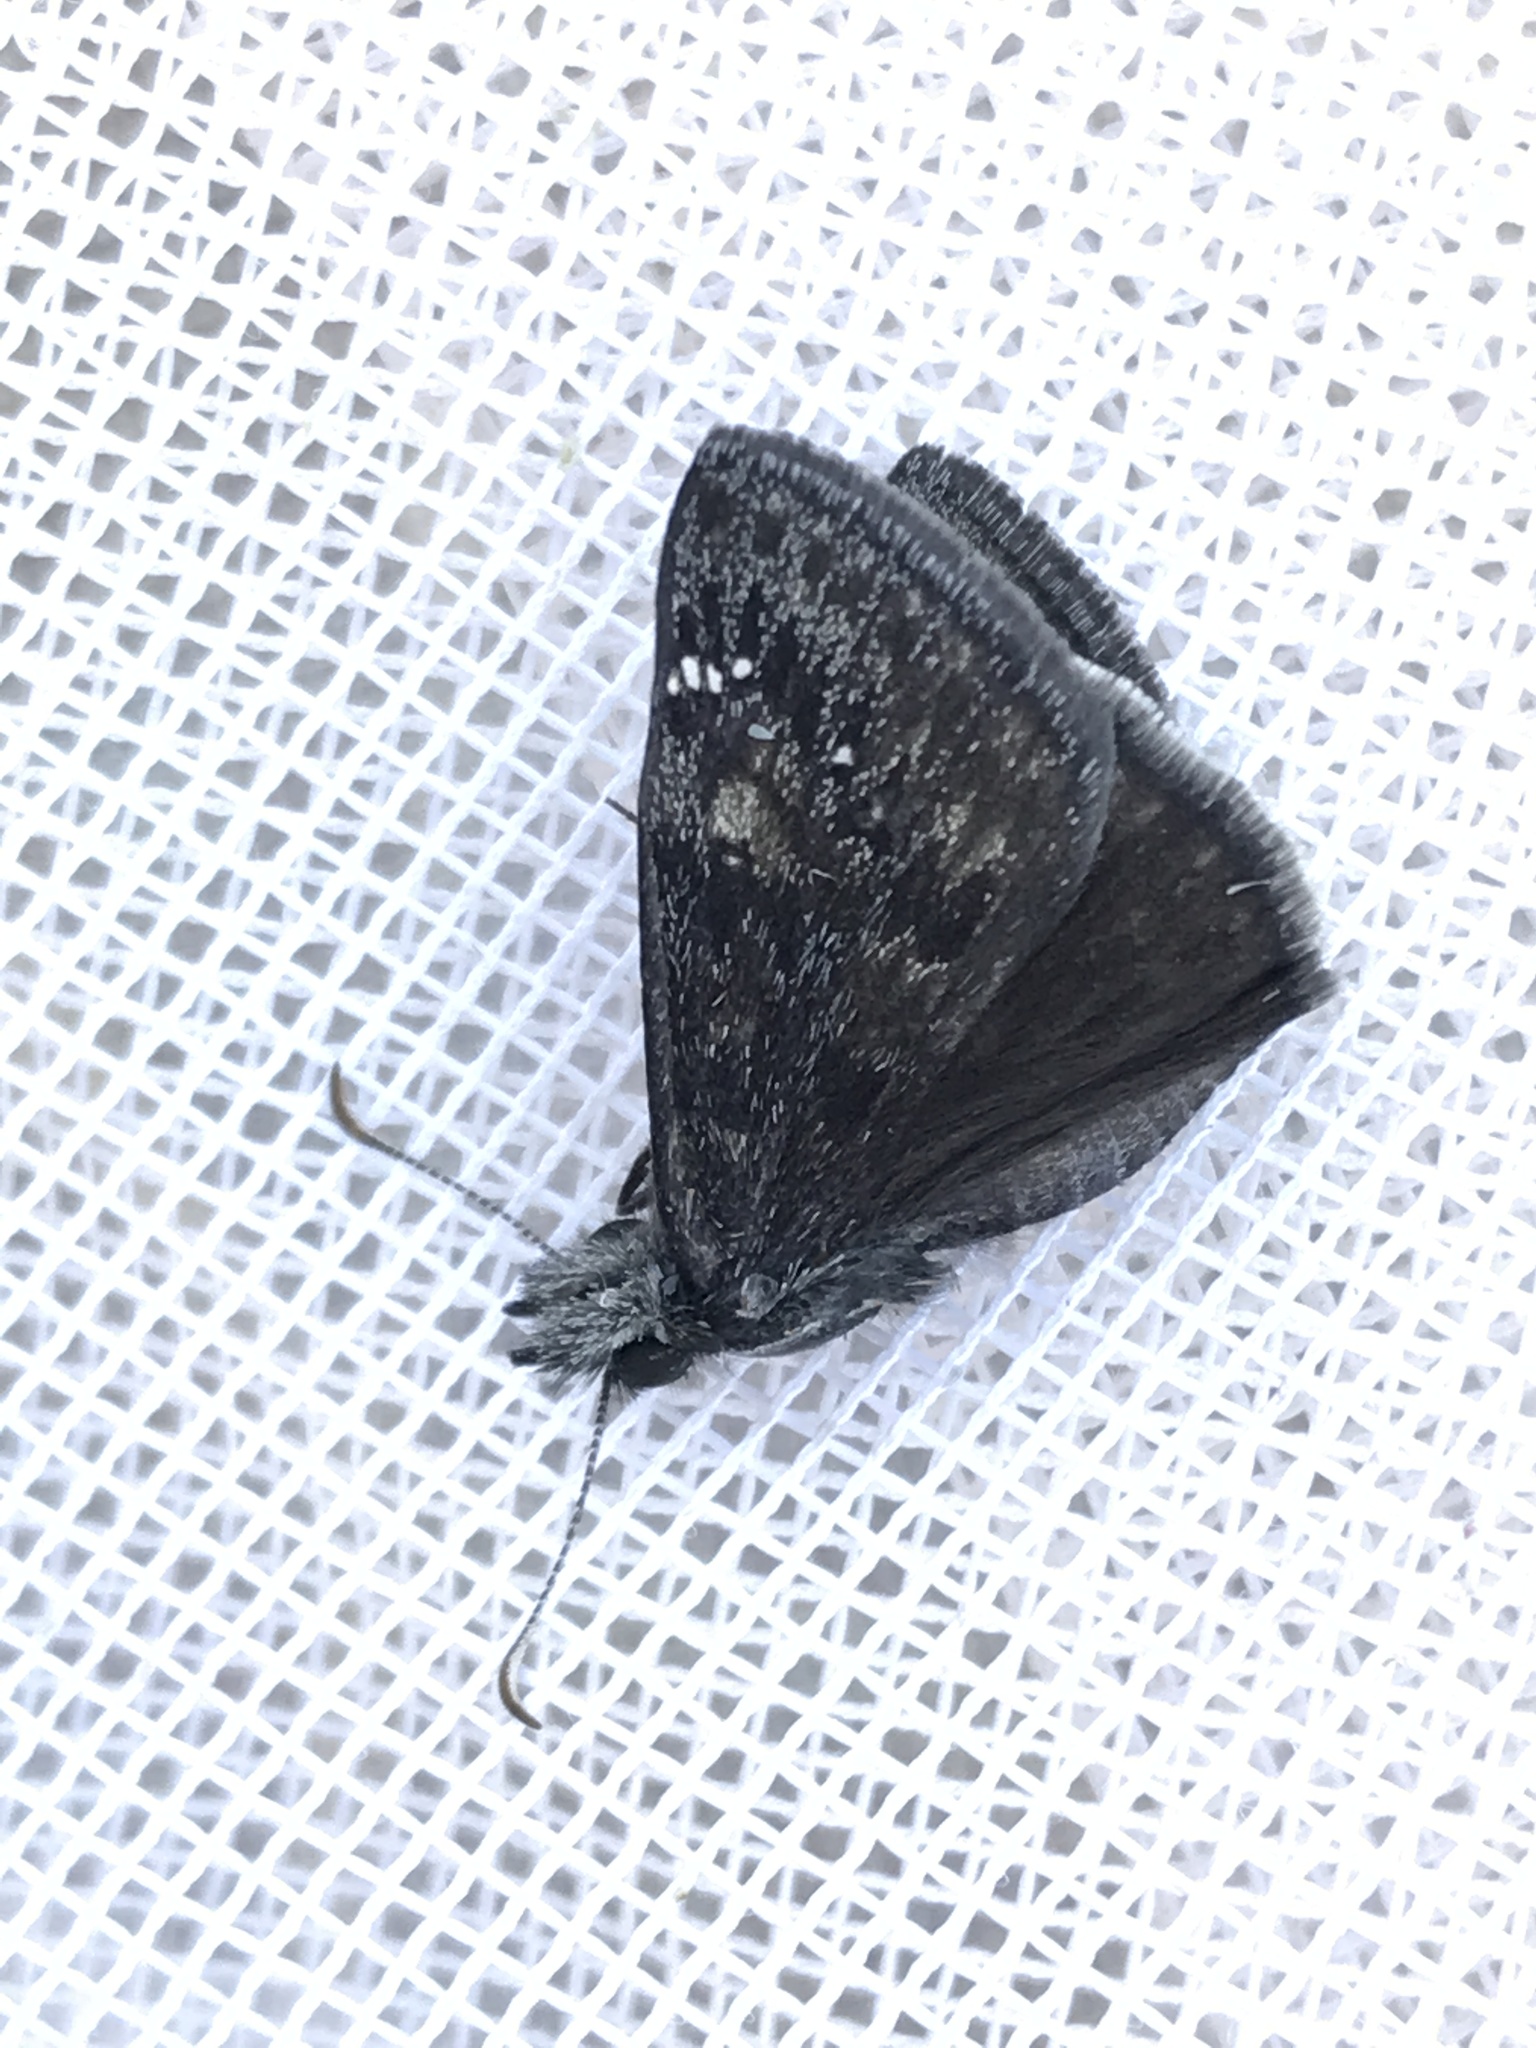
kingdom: Animalia
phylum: Arthropoda
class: Insecta
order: Lepidoptera
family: Hesperiidae
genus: Erynnis
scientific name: Erynnis afranius
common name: Afranius duskywing
